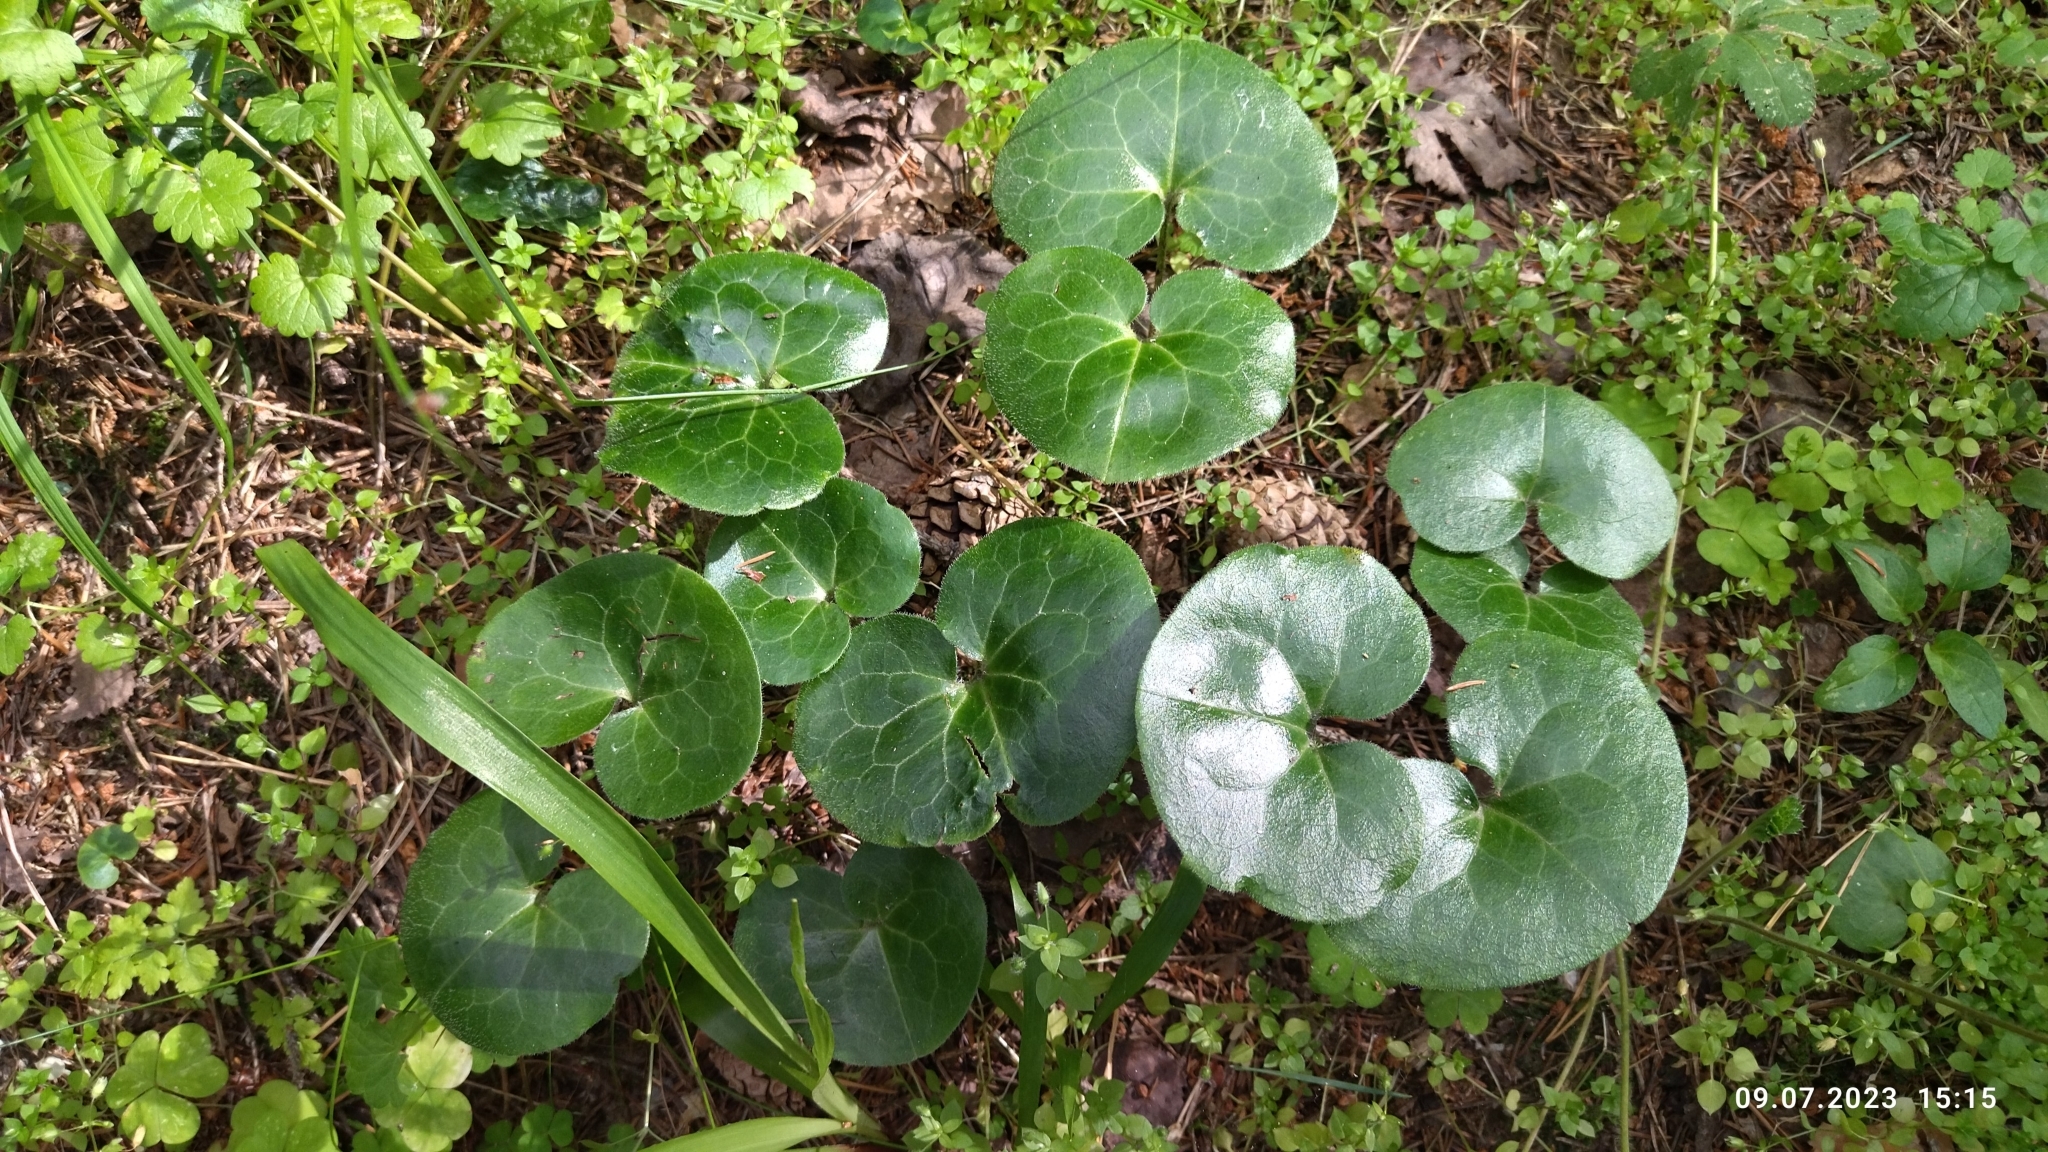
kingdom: Plantae
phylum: Tracheophyta
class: Magnoliopsida
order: Piperales
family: Aristolochiaceae
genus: Asarum
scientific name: Asarum europaeum
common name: Asarabacca
